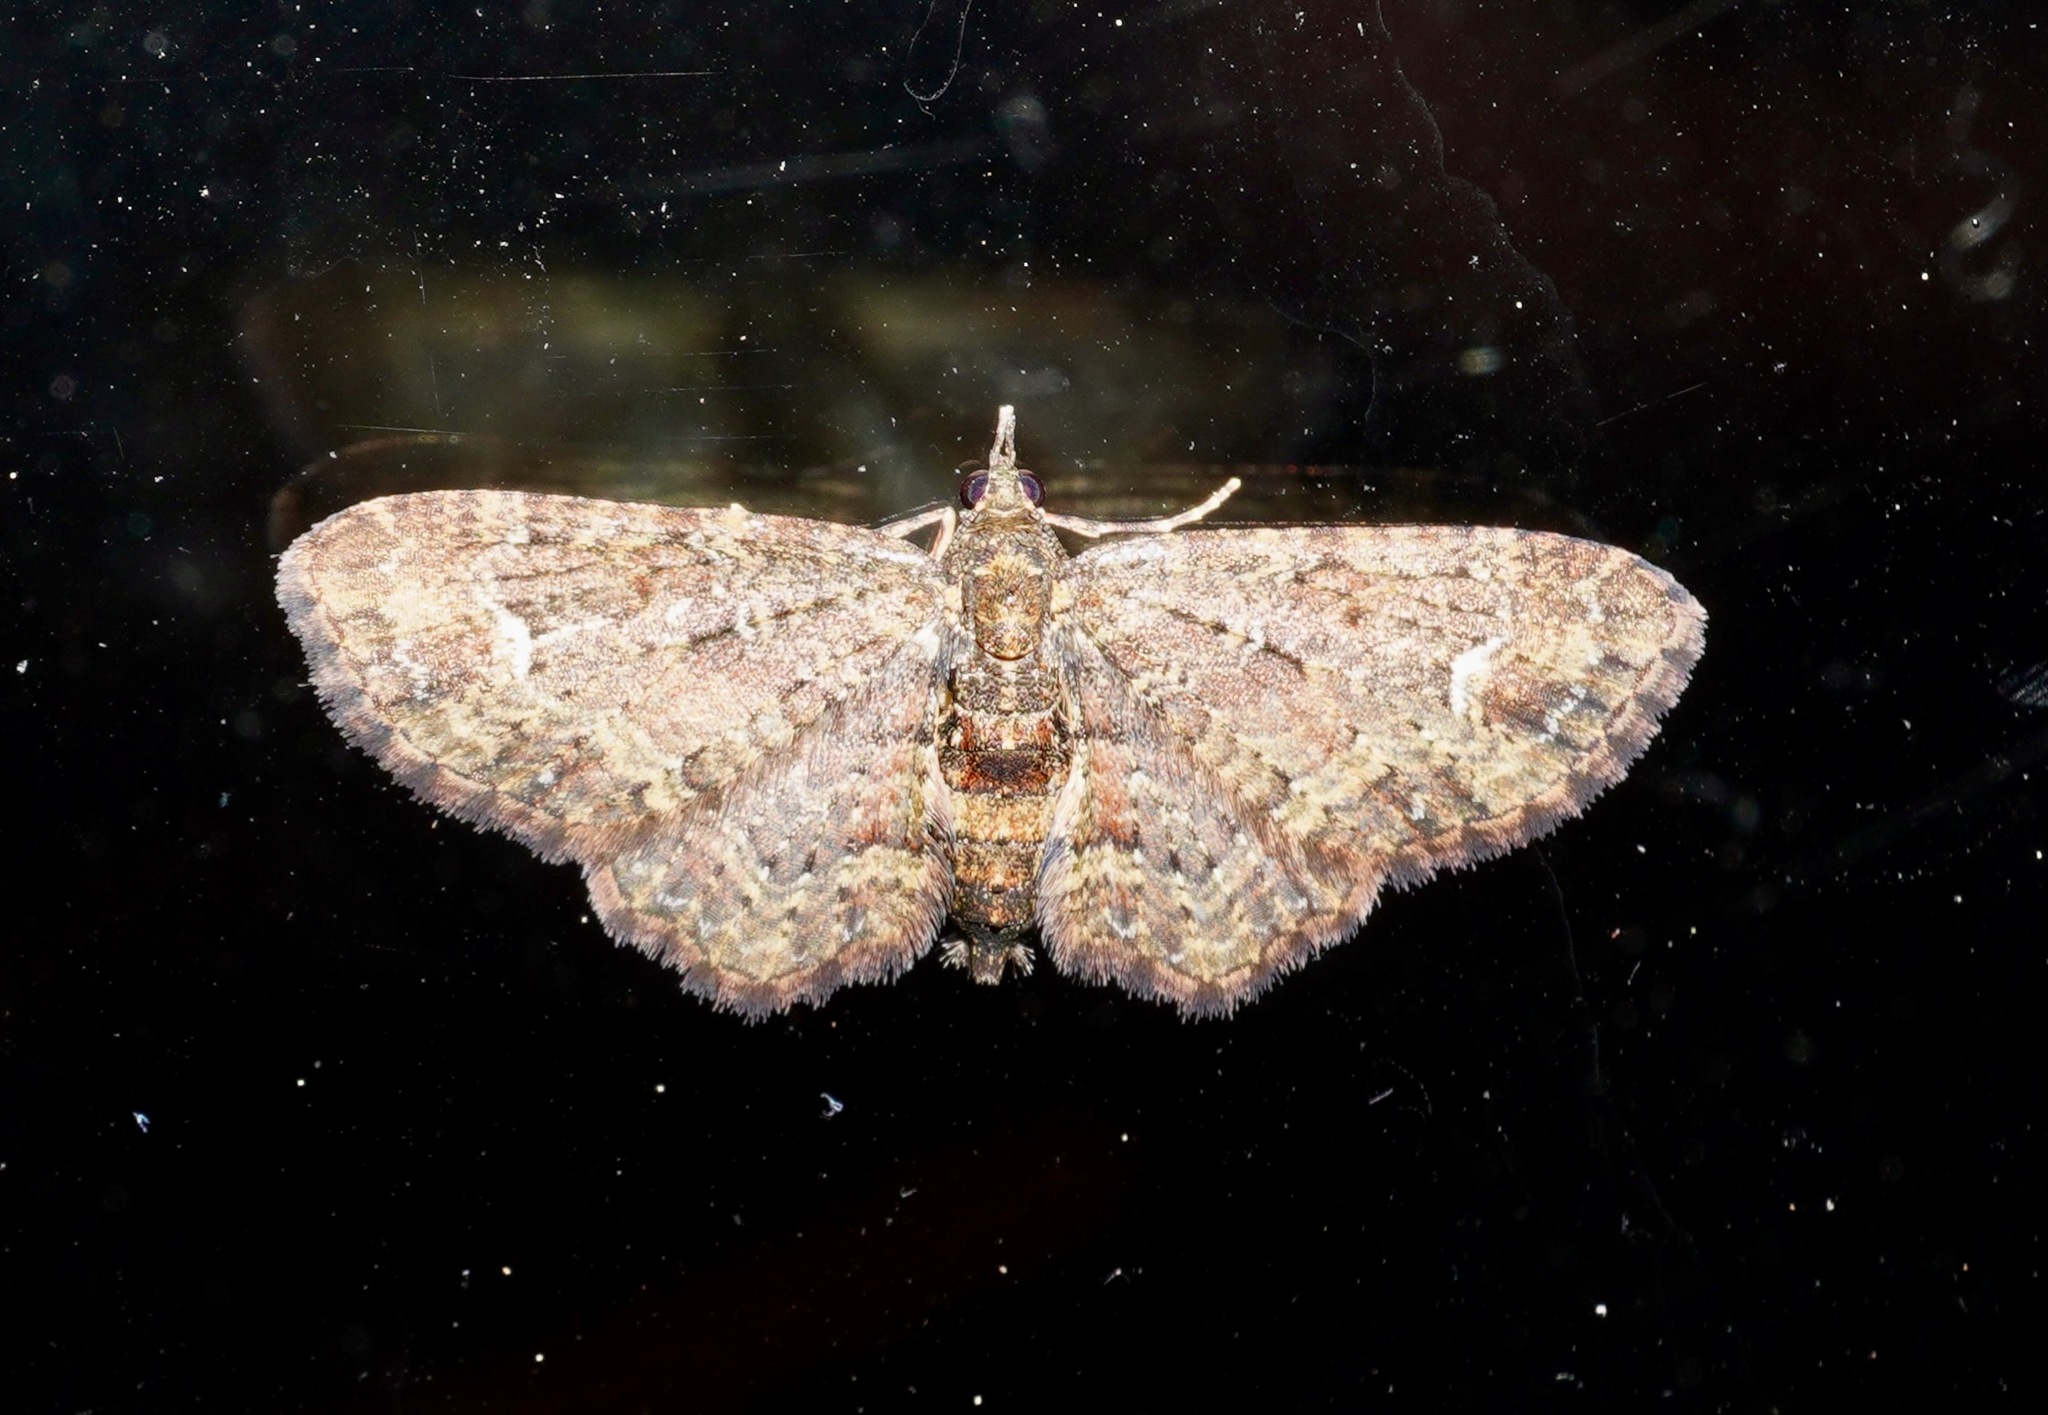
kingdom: Animalia
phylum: Arthropoda
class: Insecta
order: Lepidoptera
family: Geometridae
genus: Pasiphilodes
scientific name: Pasiphilodes testulata
